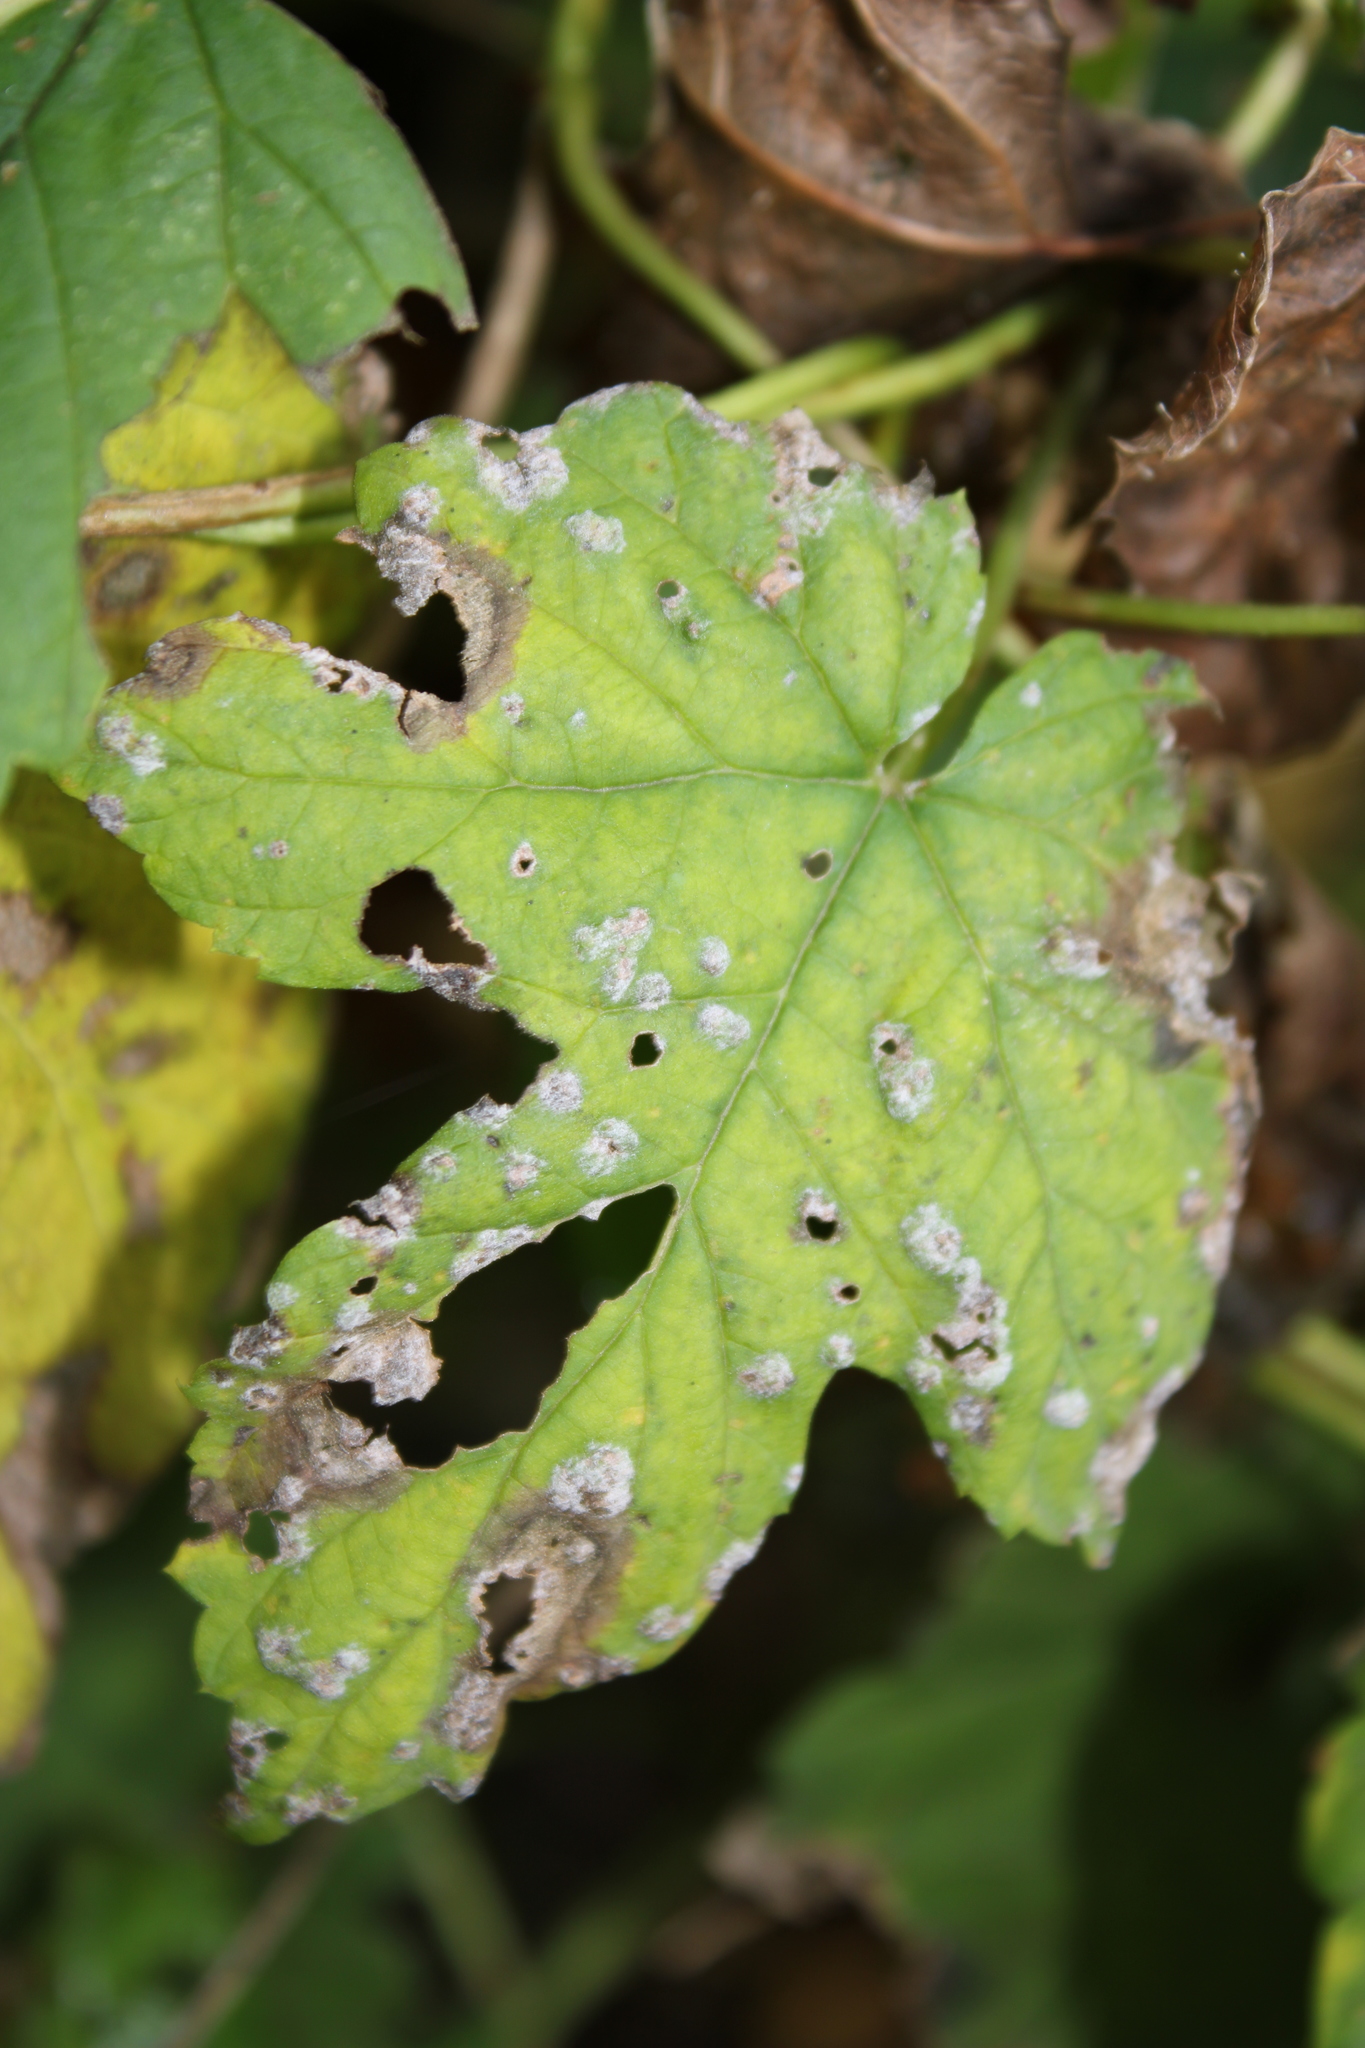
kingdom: Fungi
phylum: Ascomycota
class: Leotiomycetes
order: Helotiales
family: Erysiphaceae
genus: Podosphaera
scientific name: Podosphaera macularis
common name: Powdery mildew
